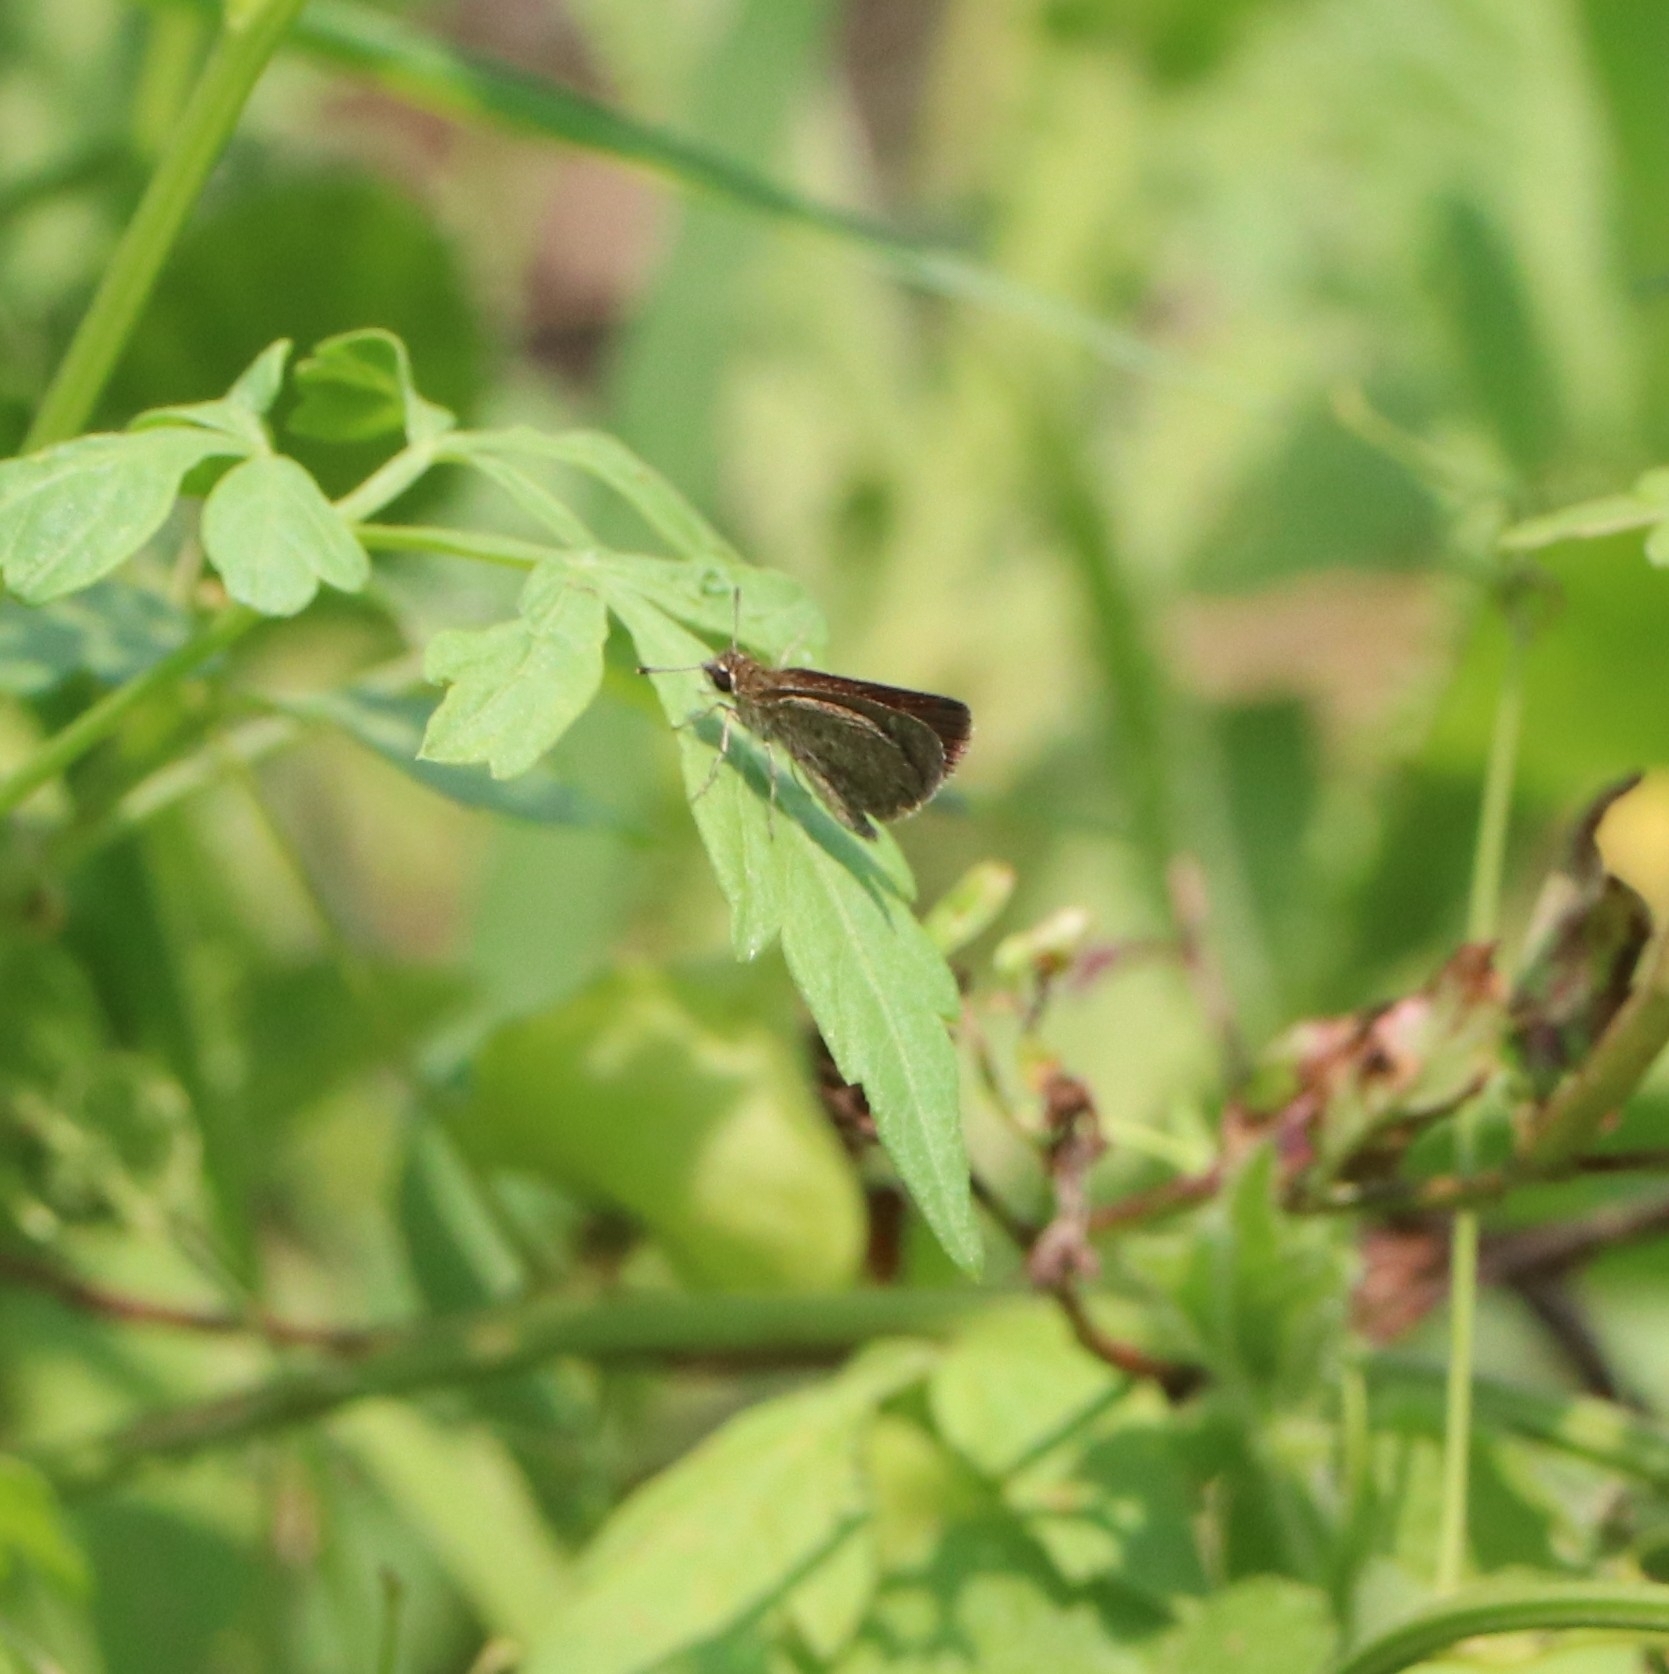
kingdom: Animalia
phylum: Arthropoda
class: Insecta
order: Lepidoptera
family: Hesperiidae
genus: Aeromachus
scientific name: Aeromachus pygmaeus
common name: Pygmy scrub hopper
